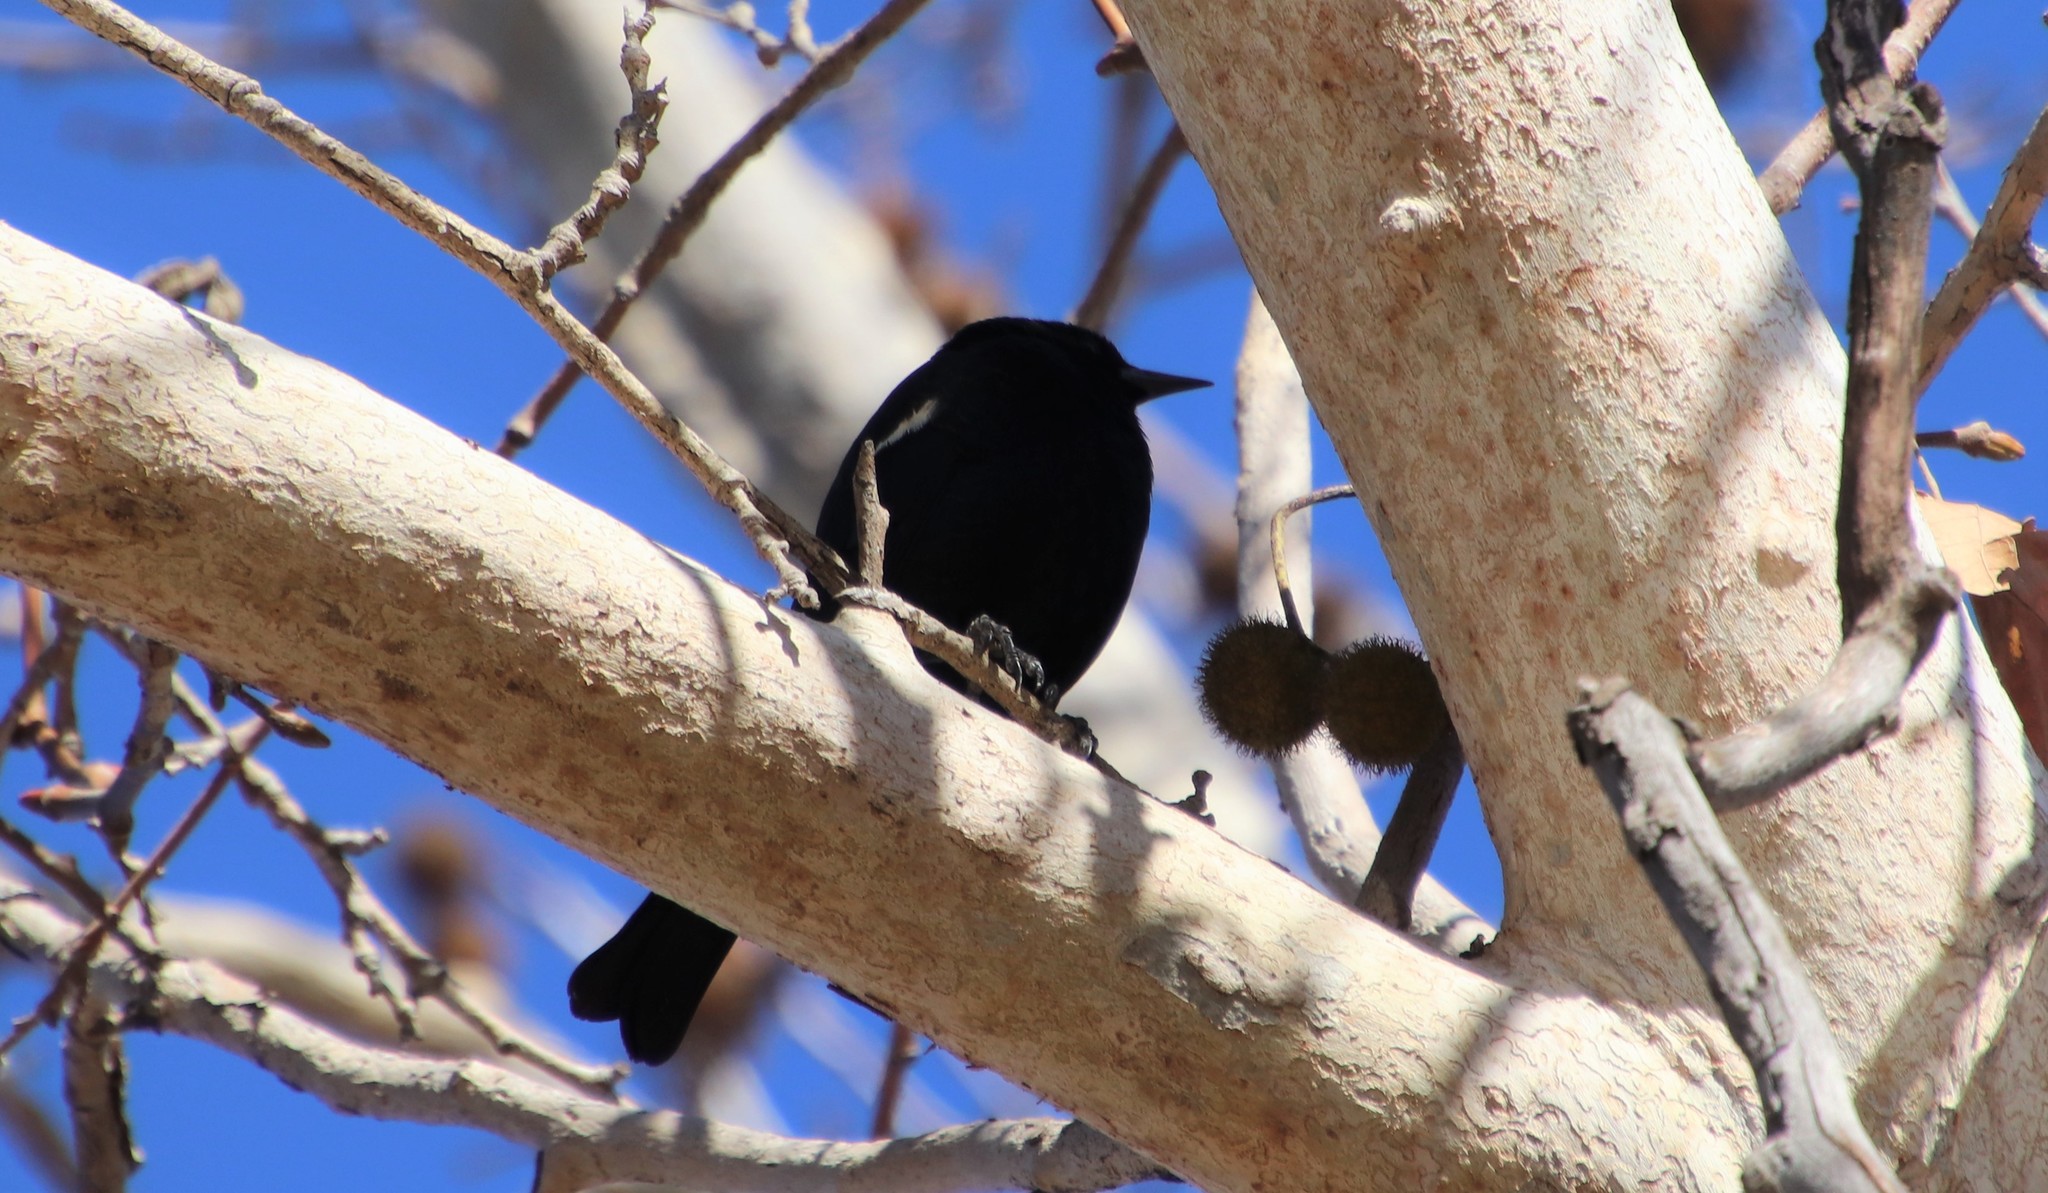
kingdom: Animalia
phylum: Chordata
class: Aves
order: Passeriformes
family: Icteridae
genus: Agelaius
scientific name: Agelaius tricolor
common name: Tricolored blackbird
